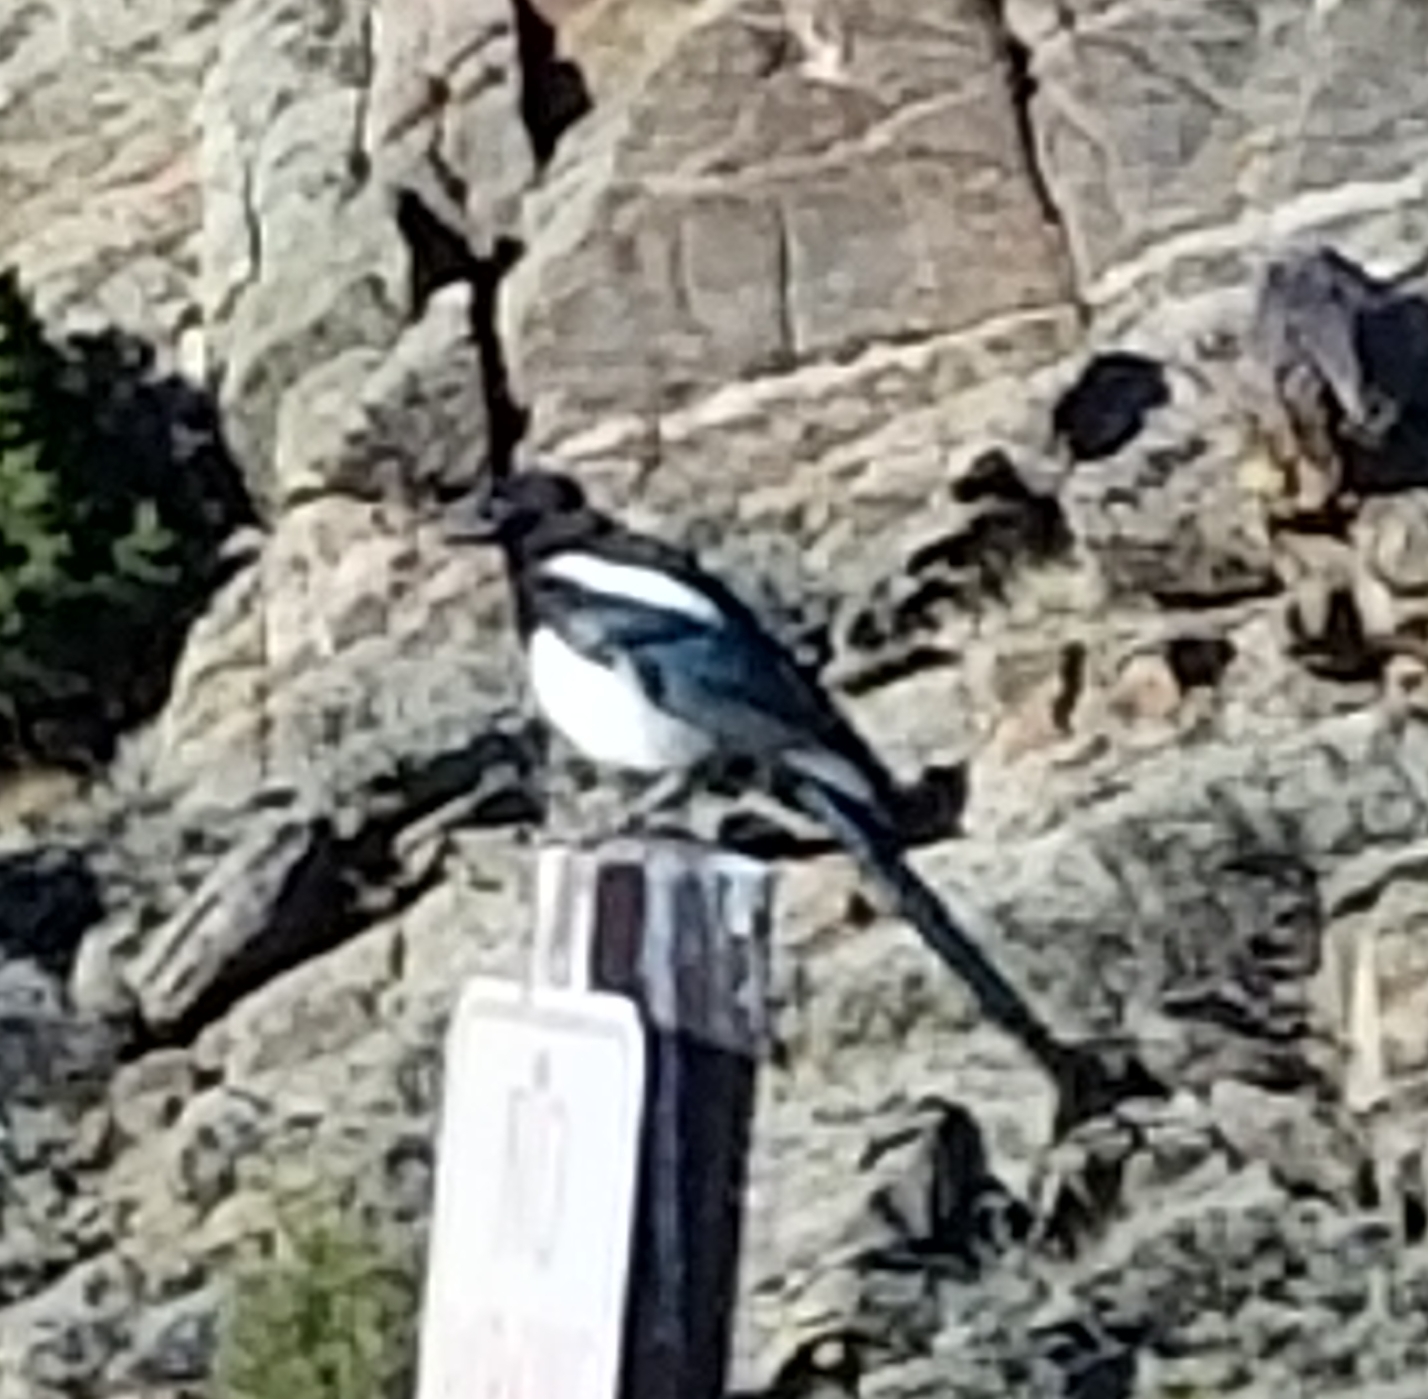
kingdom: Animalia
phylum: Chordata
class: Aves
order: Passeriformes
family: Corvidae
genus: Pica
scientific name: Pica hudsonia
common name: Black-billed magpie
